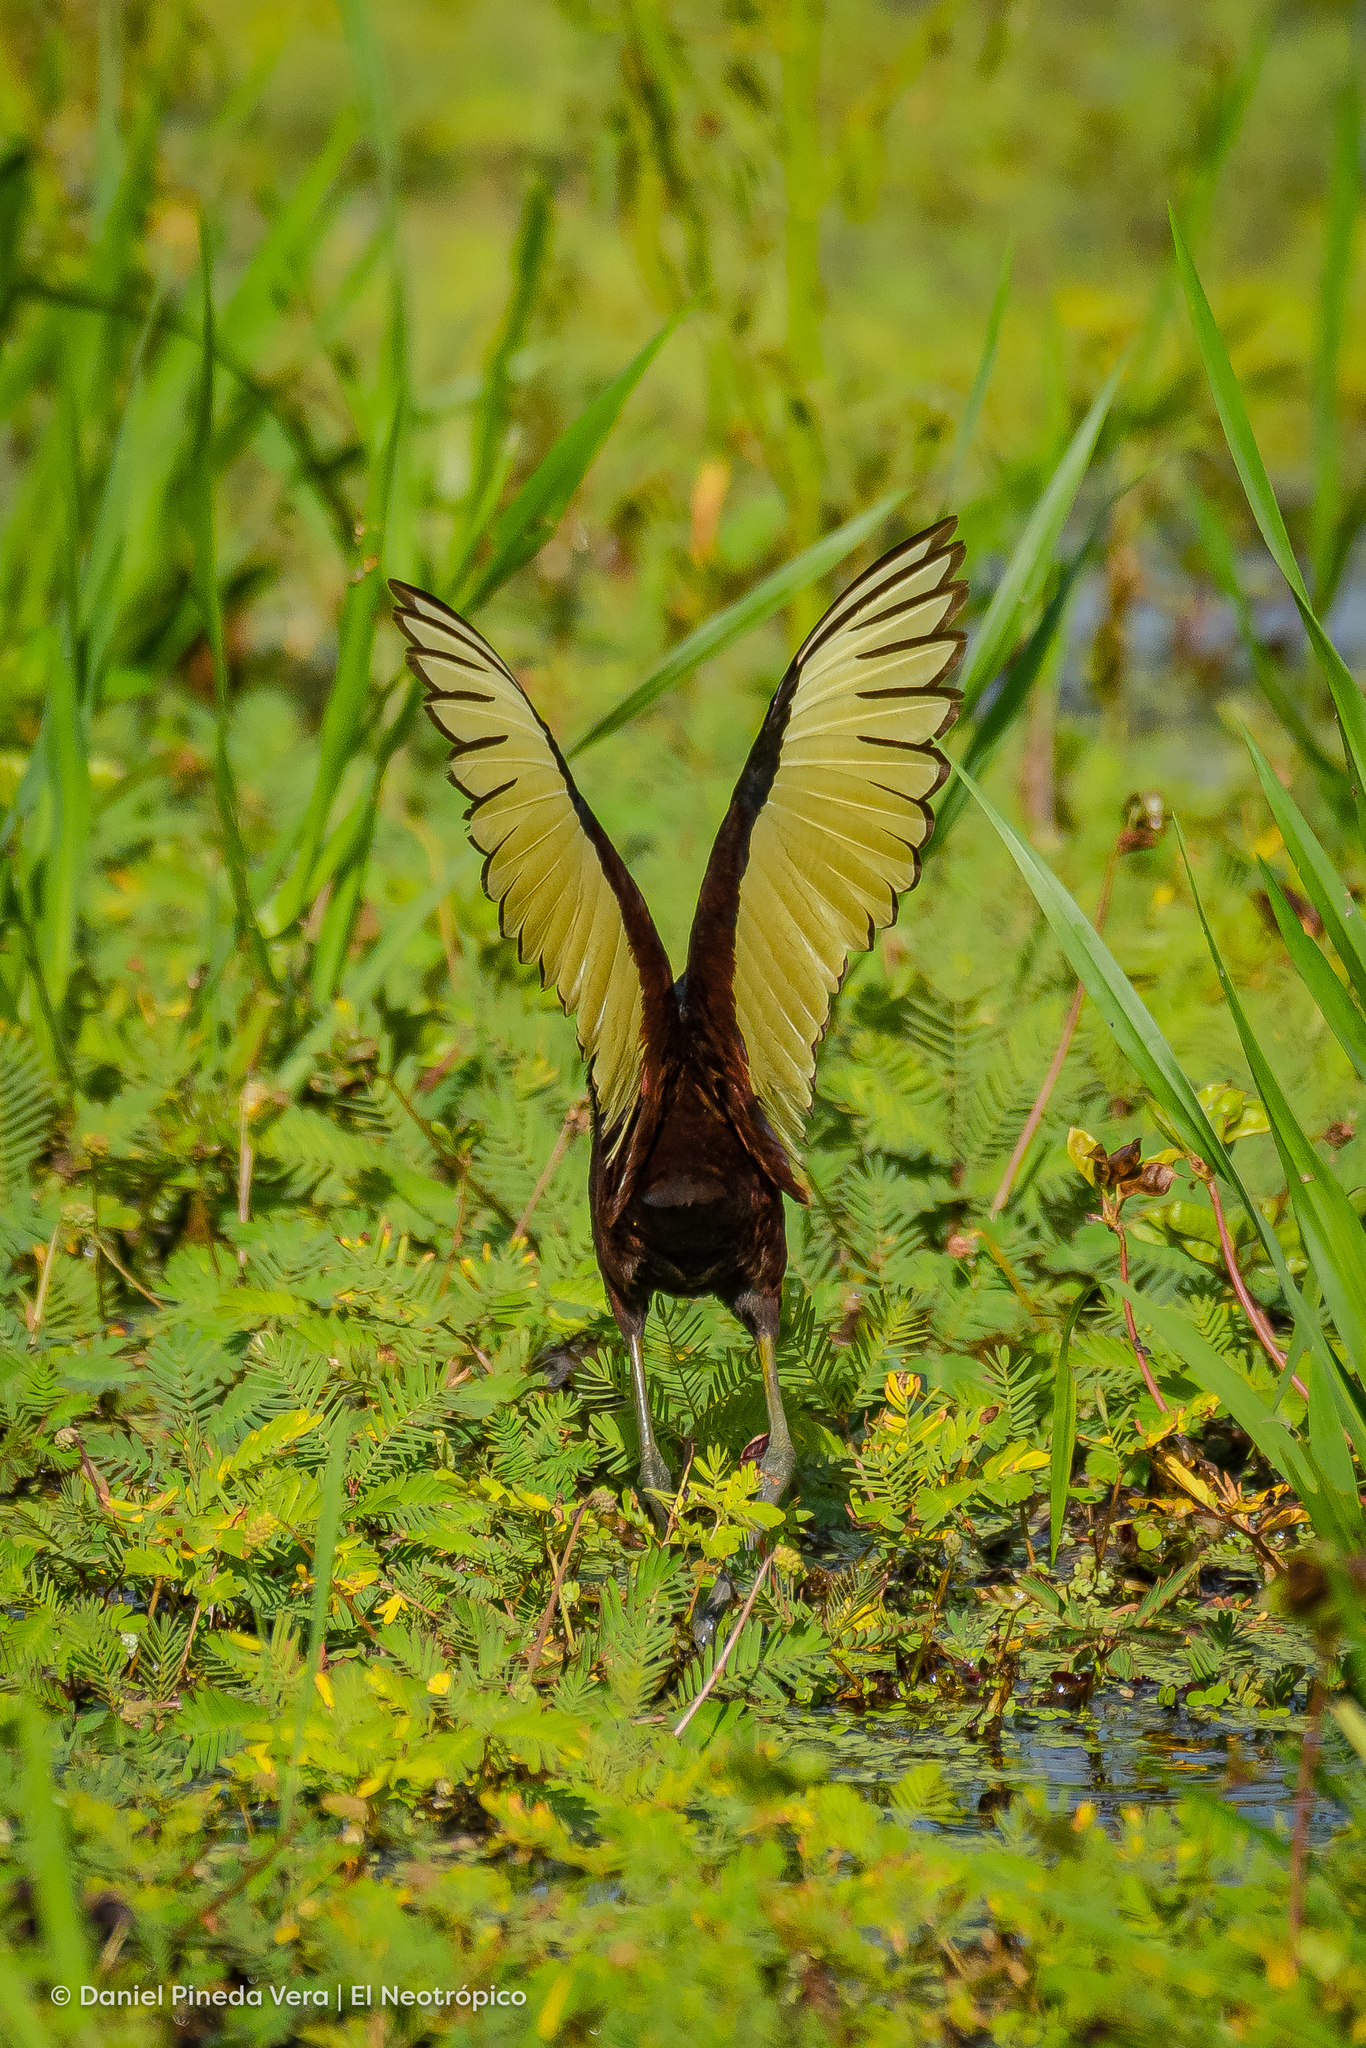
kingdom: Animalia
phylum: Chordata
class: Aves
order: Charadriiformes
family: Jacanidae
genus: Jacana
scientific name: Jacana spinosa
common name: Northern jacana
